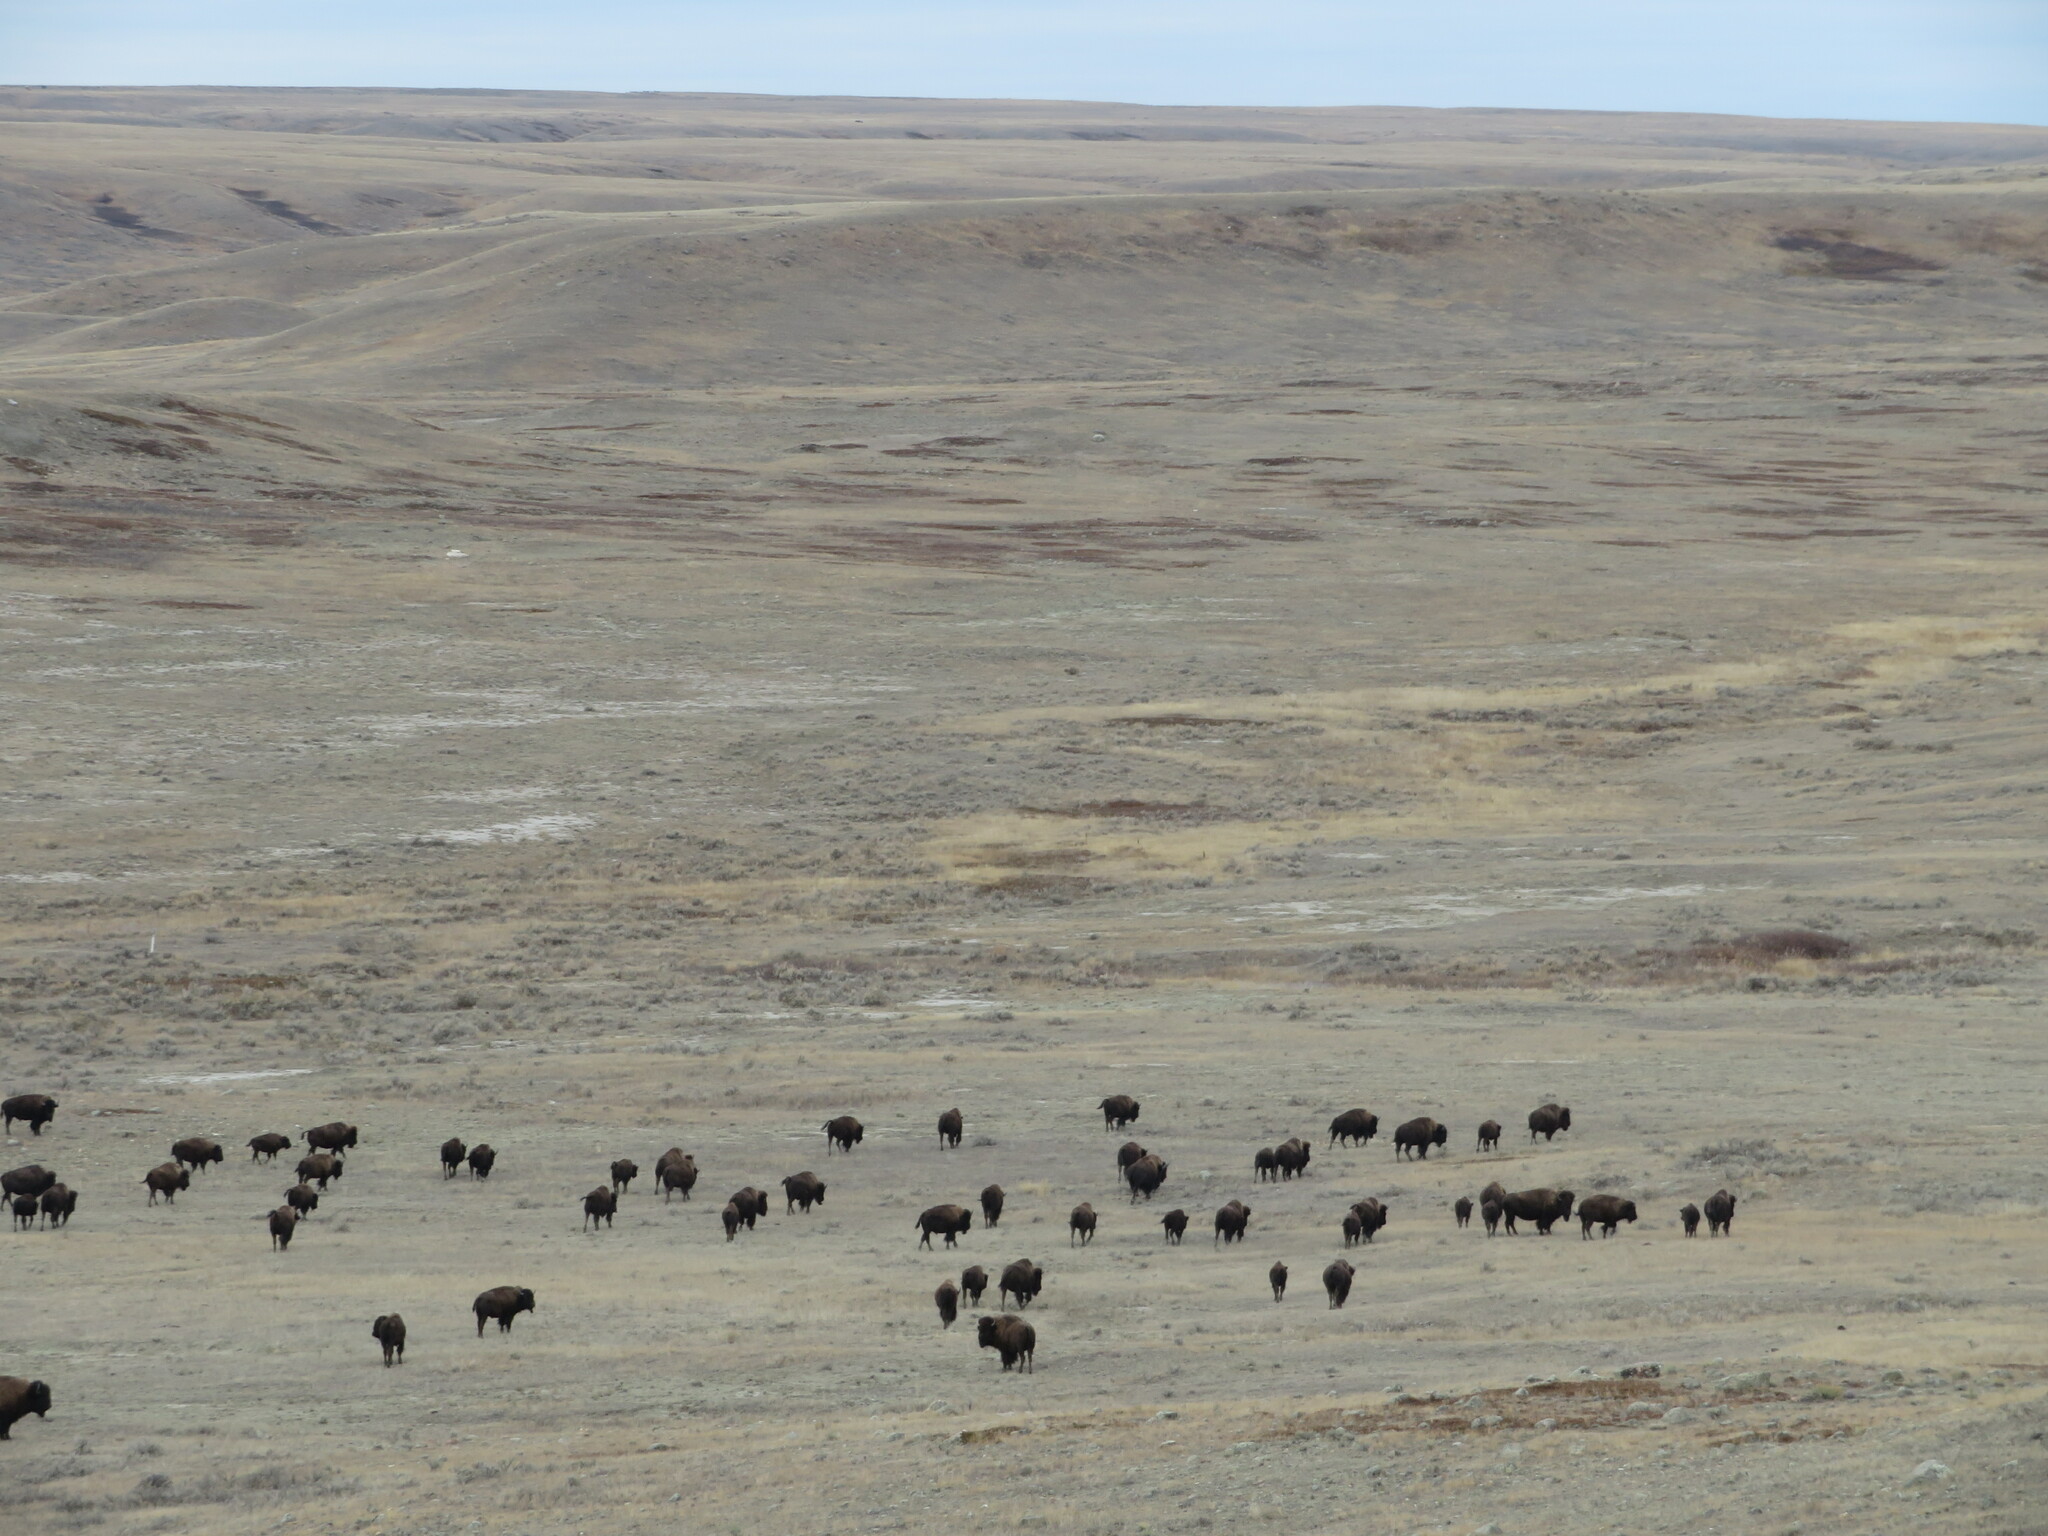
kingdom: Animalia
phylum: Chordata
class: Mammalia
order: Artiodactyla
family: Bovidae
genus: Bison
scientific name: Bison bison
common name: American bison
